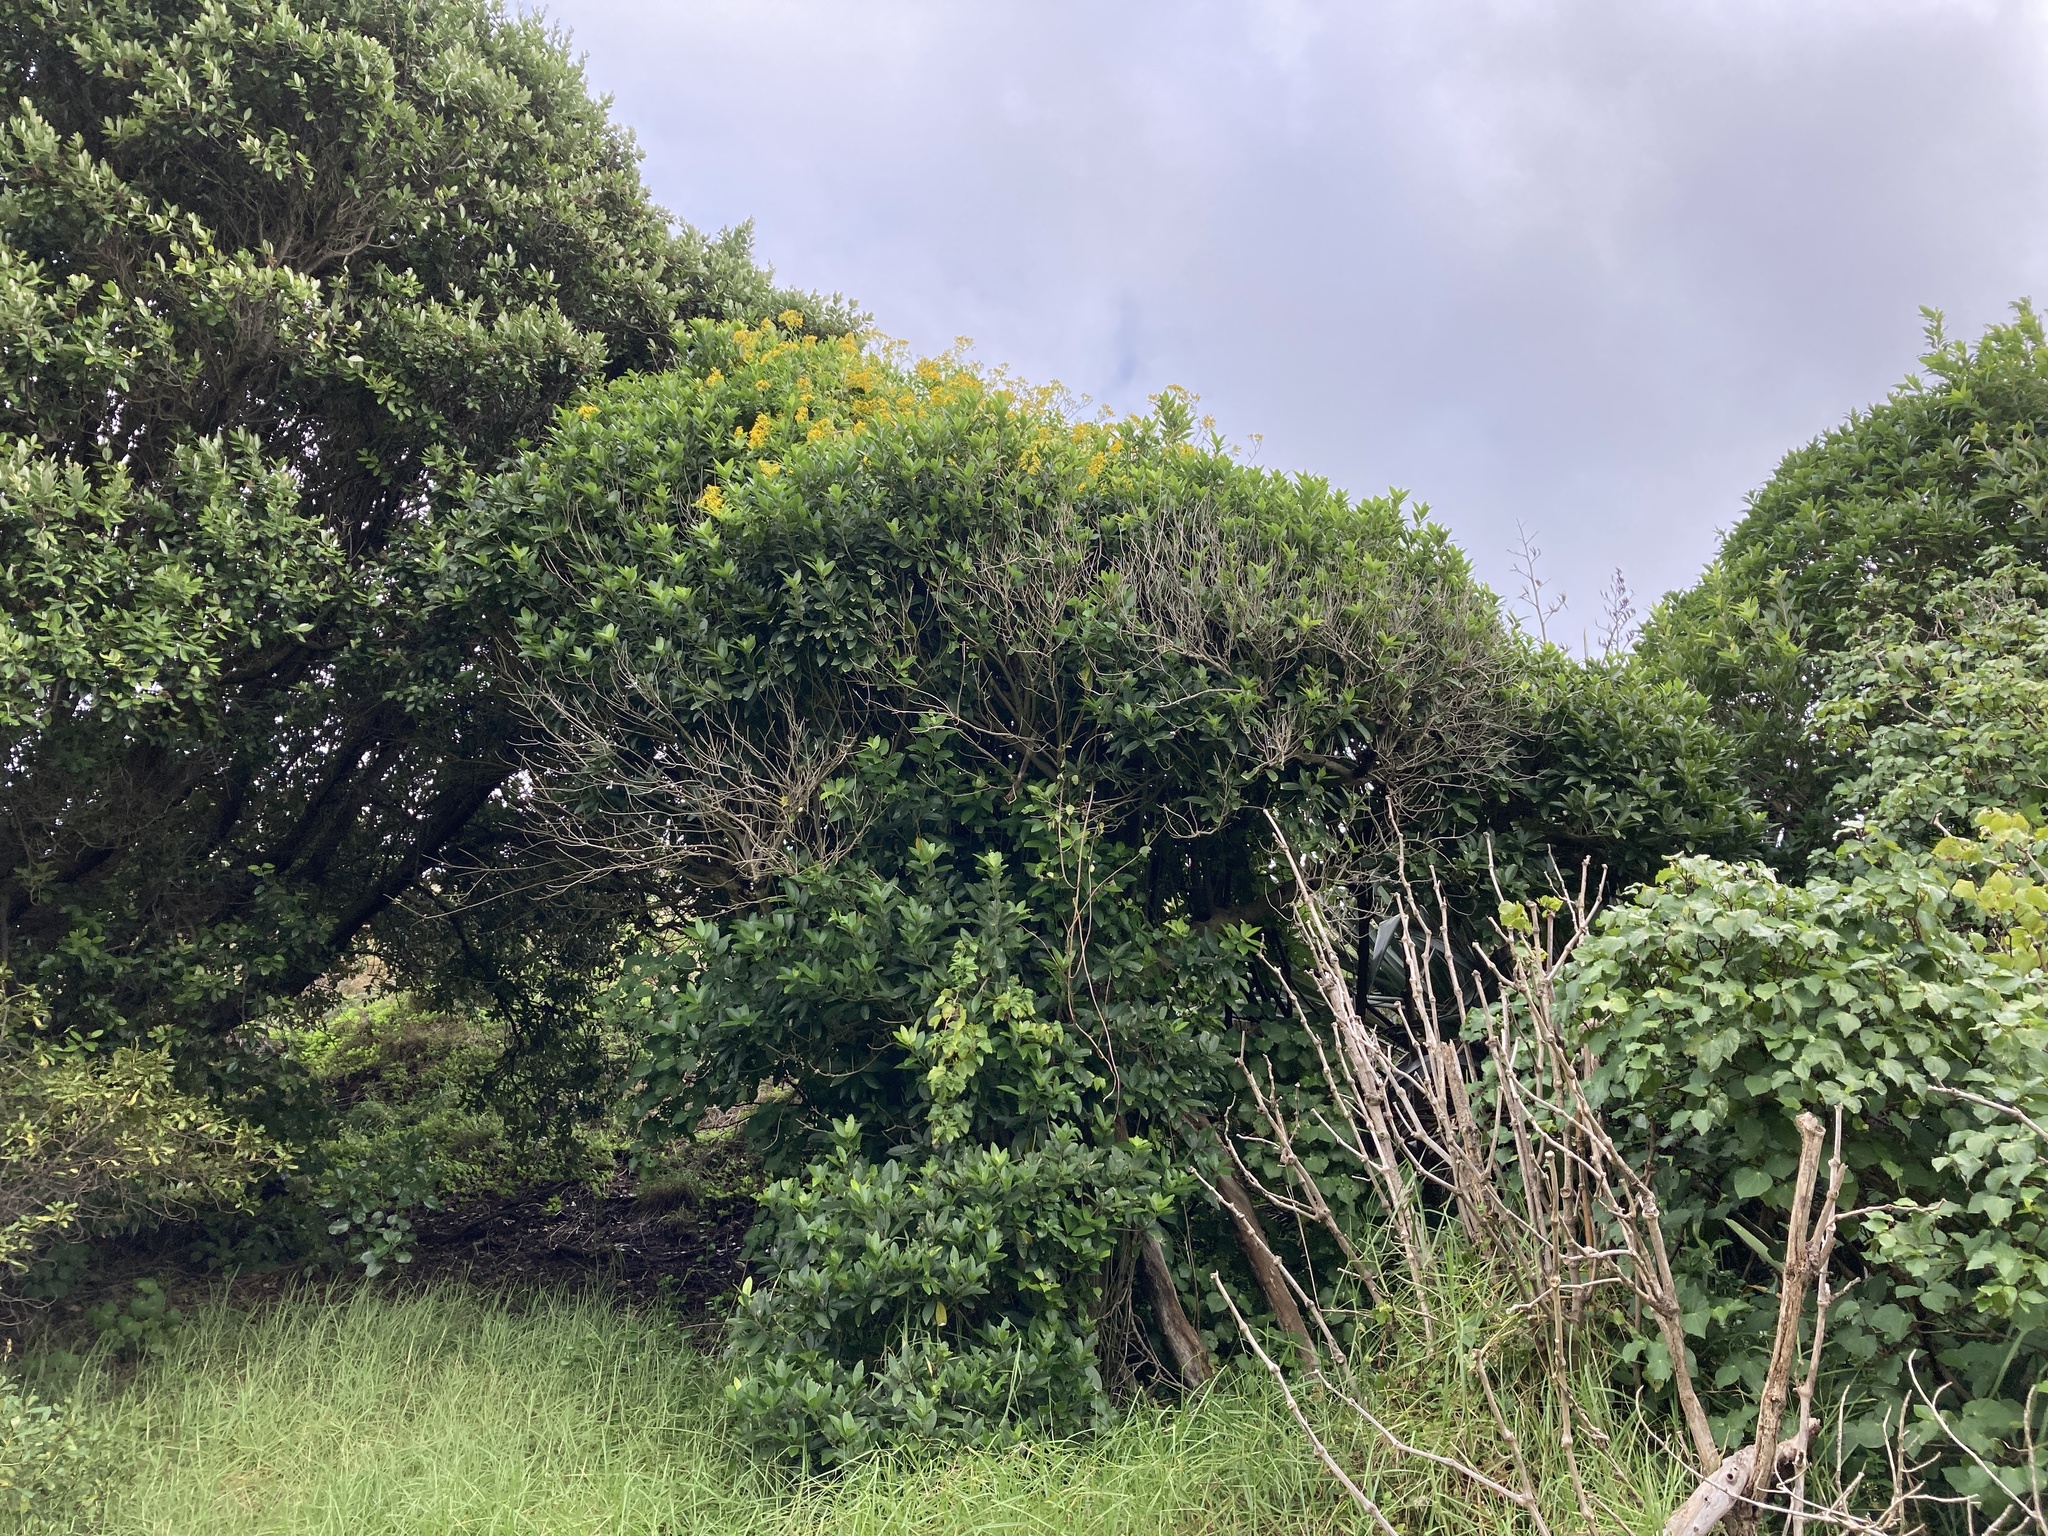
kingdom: Plantae
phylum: Tracheophyta
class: Magnoliopsida
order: Asterales
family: Asteraceae
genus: Senecio
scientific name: Senecio angulatus
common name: Climbing groundsel
